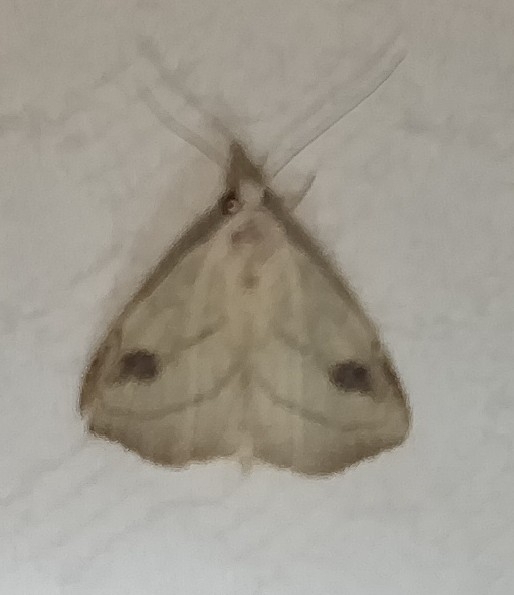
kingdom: Animalia
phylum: Arthropoda
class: Insecta
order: Lepidoptera
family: Erebidae
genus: Rivula
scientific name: Rivula propinqualis
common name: Spotted grass moth
